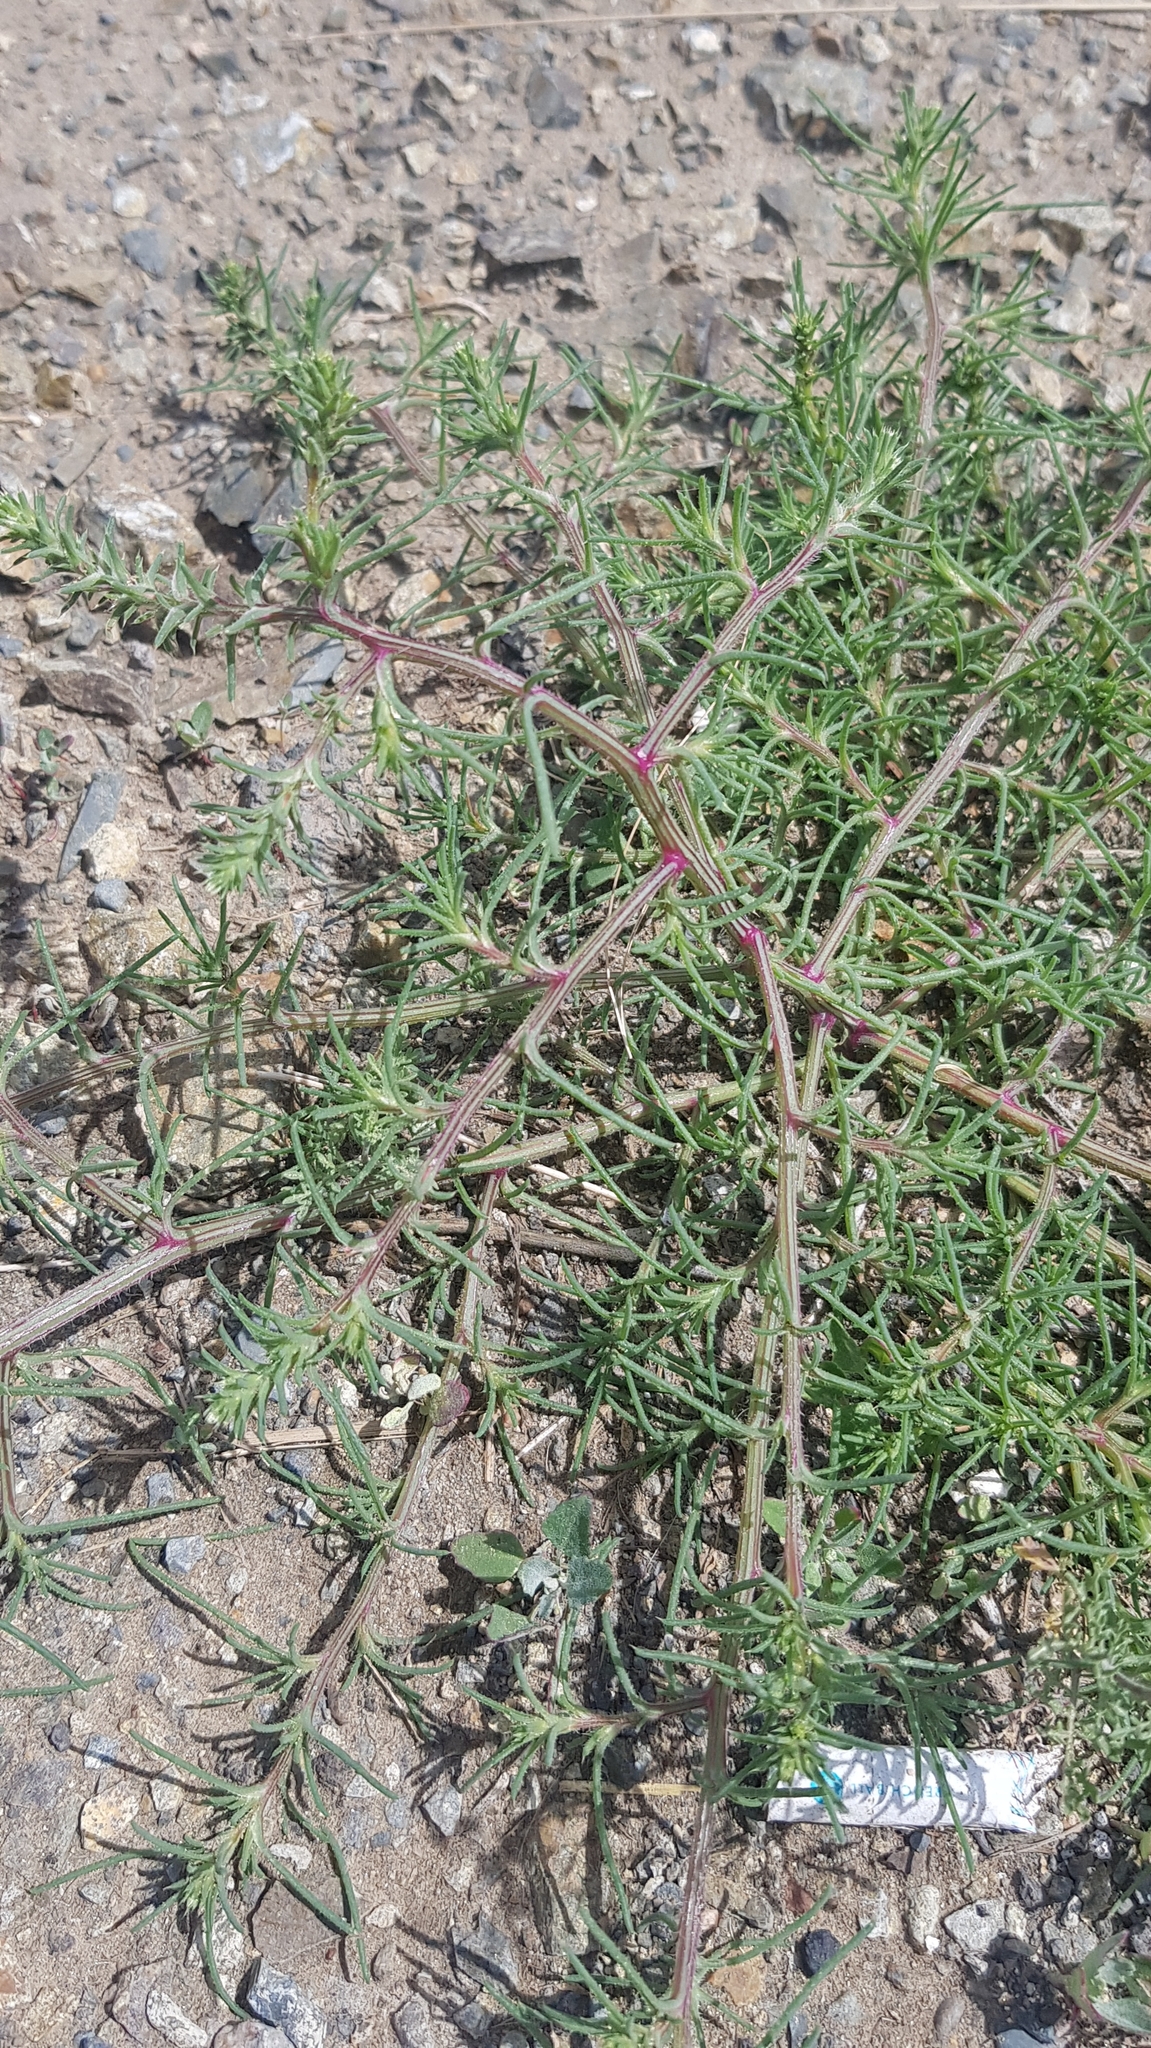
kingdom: Plantae
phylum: Tracheophyta
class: Magnoliopsida
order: Caryophyllales
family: Amaranthaceae
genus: Salsola
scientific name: Salsola collina
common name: Tumbleweed
